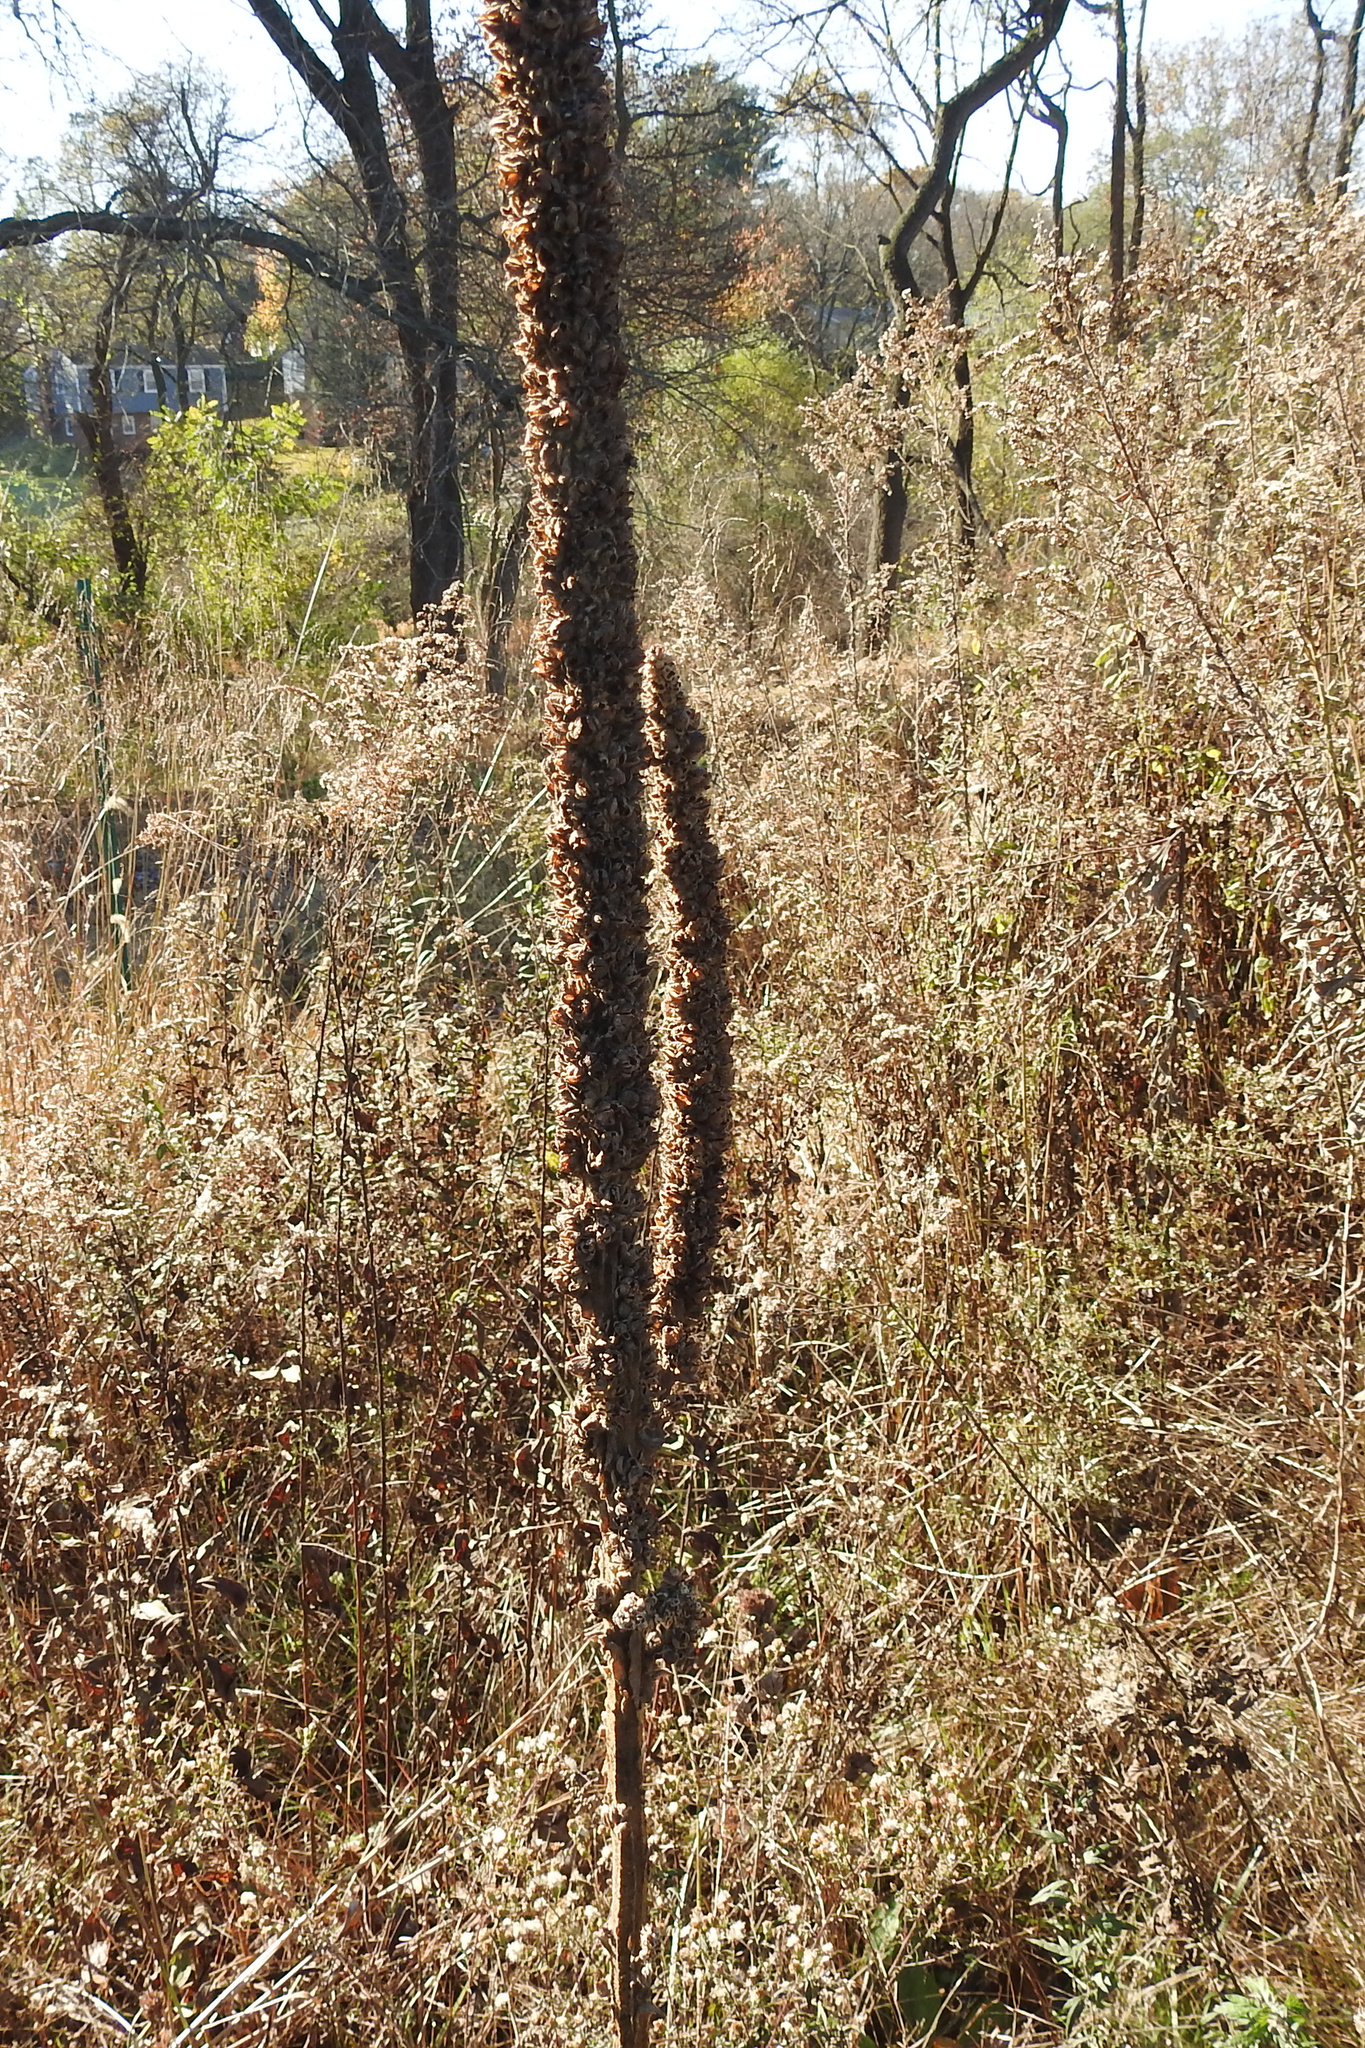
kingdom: Plantae
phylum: Tracheophyta
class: Magnoliopsida
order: Lamiales
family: Scrophulariaceae
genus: Verbascum
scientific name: Verbascum thapsus
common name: Common mullein
